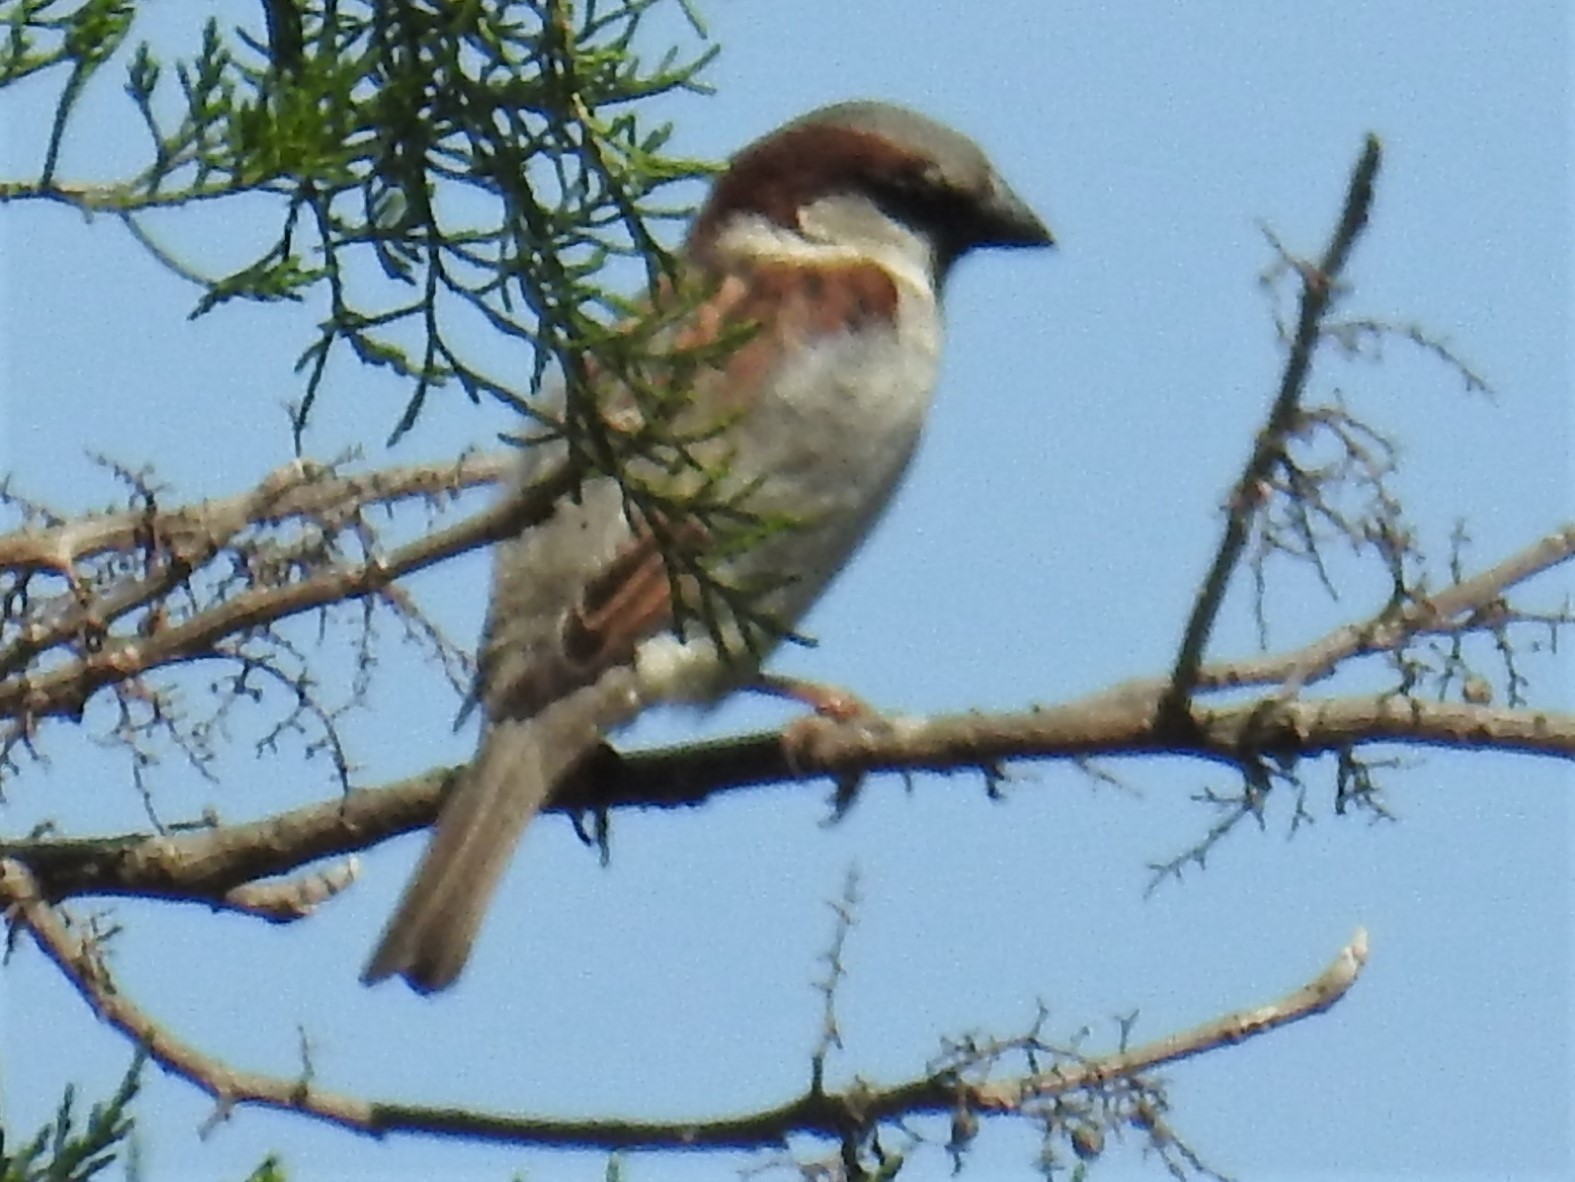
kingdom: Animalia
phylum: Chordata
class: Aves
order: Passeriformes
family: Passeridae
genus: Passer
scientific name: Passer domesticus
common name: House sparrow
